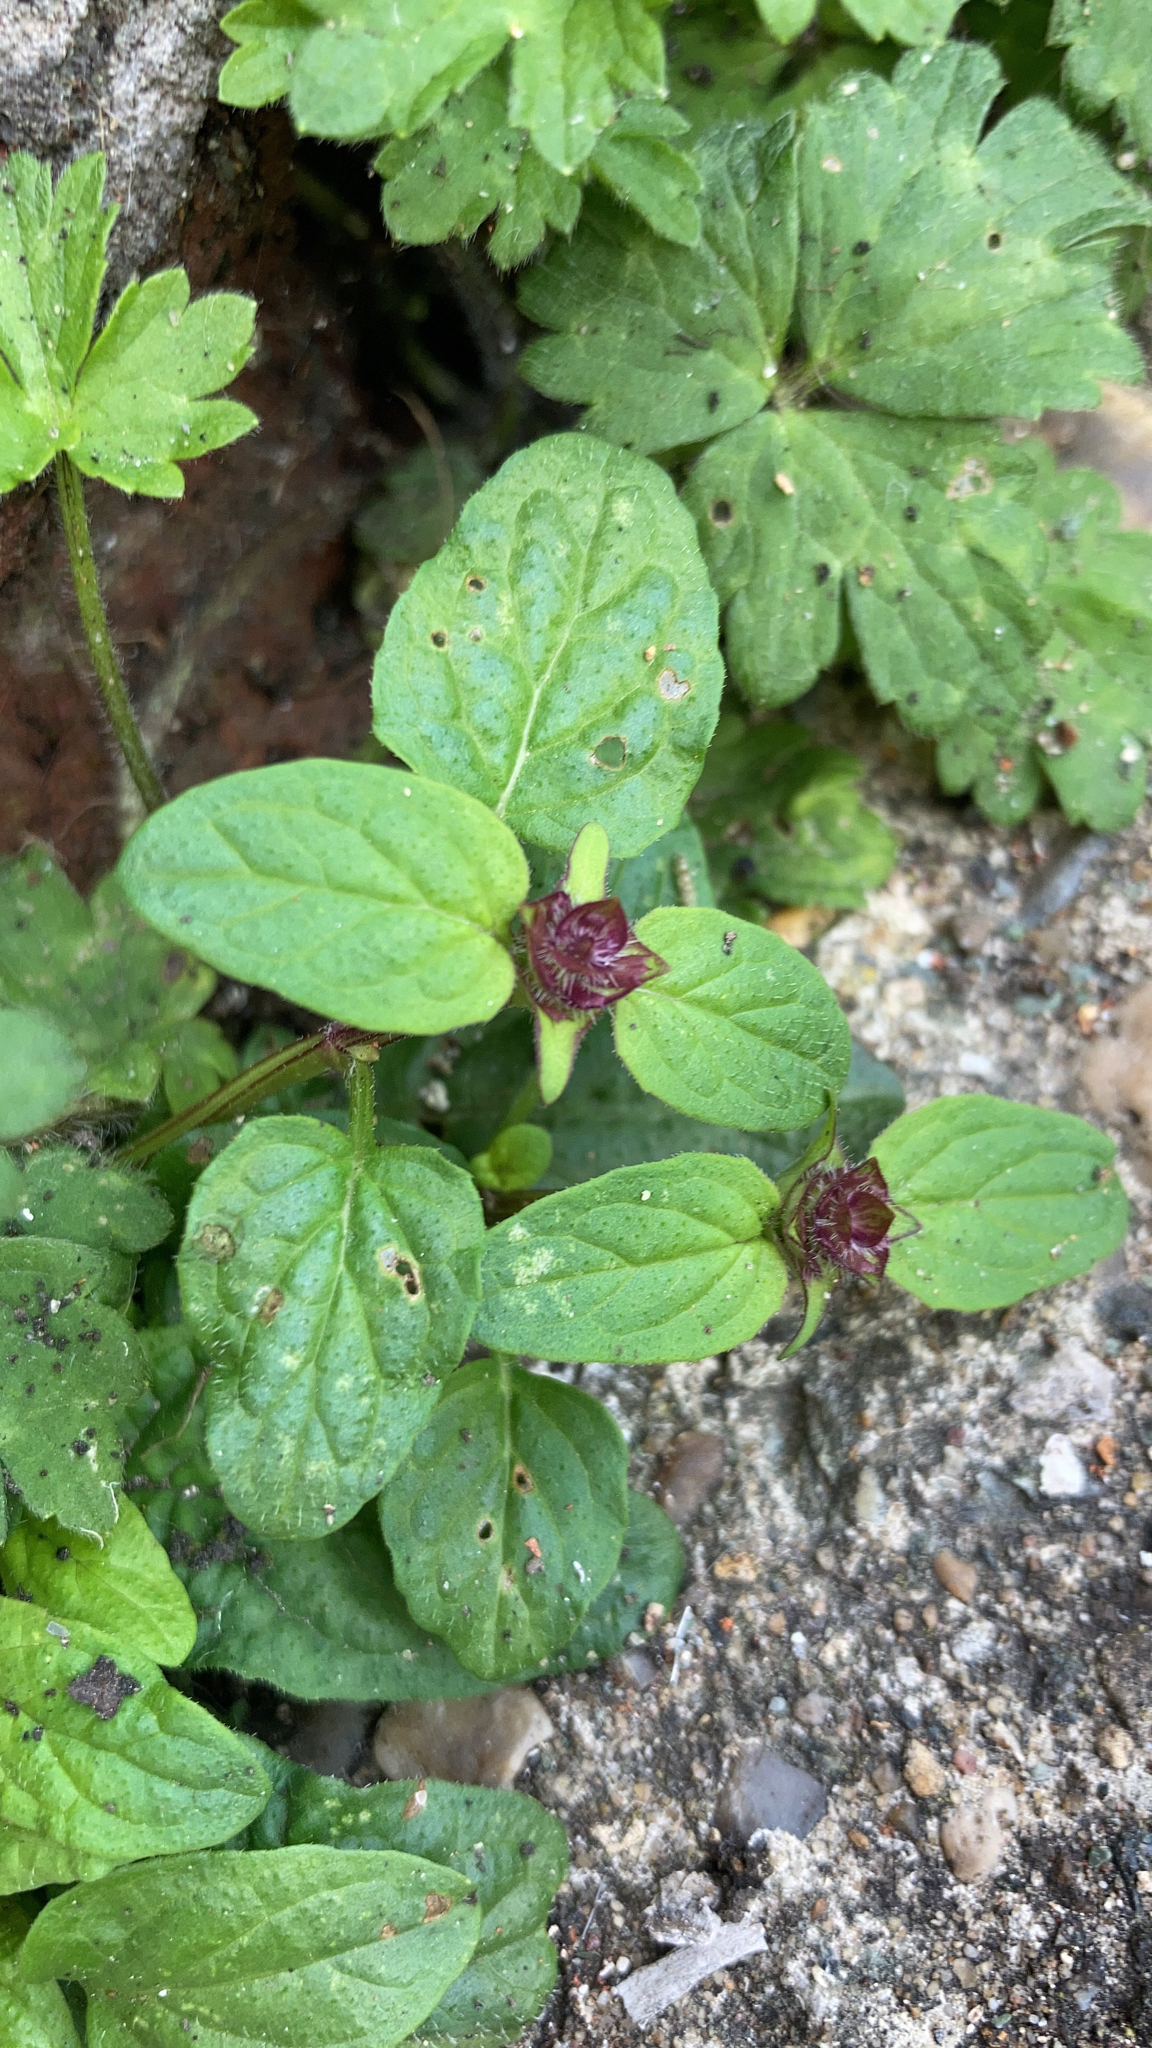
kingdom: Plantae
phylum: Tracheophyta
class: Magnoliopsida
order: Lamiales
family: Lamiaceae
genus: Prunella
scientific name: Prunella vulgaris
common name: Heal-all
